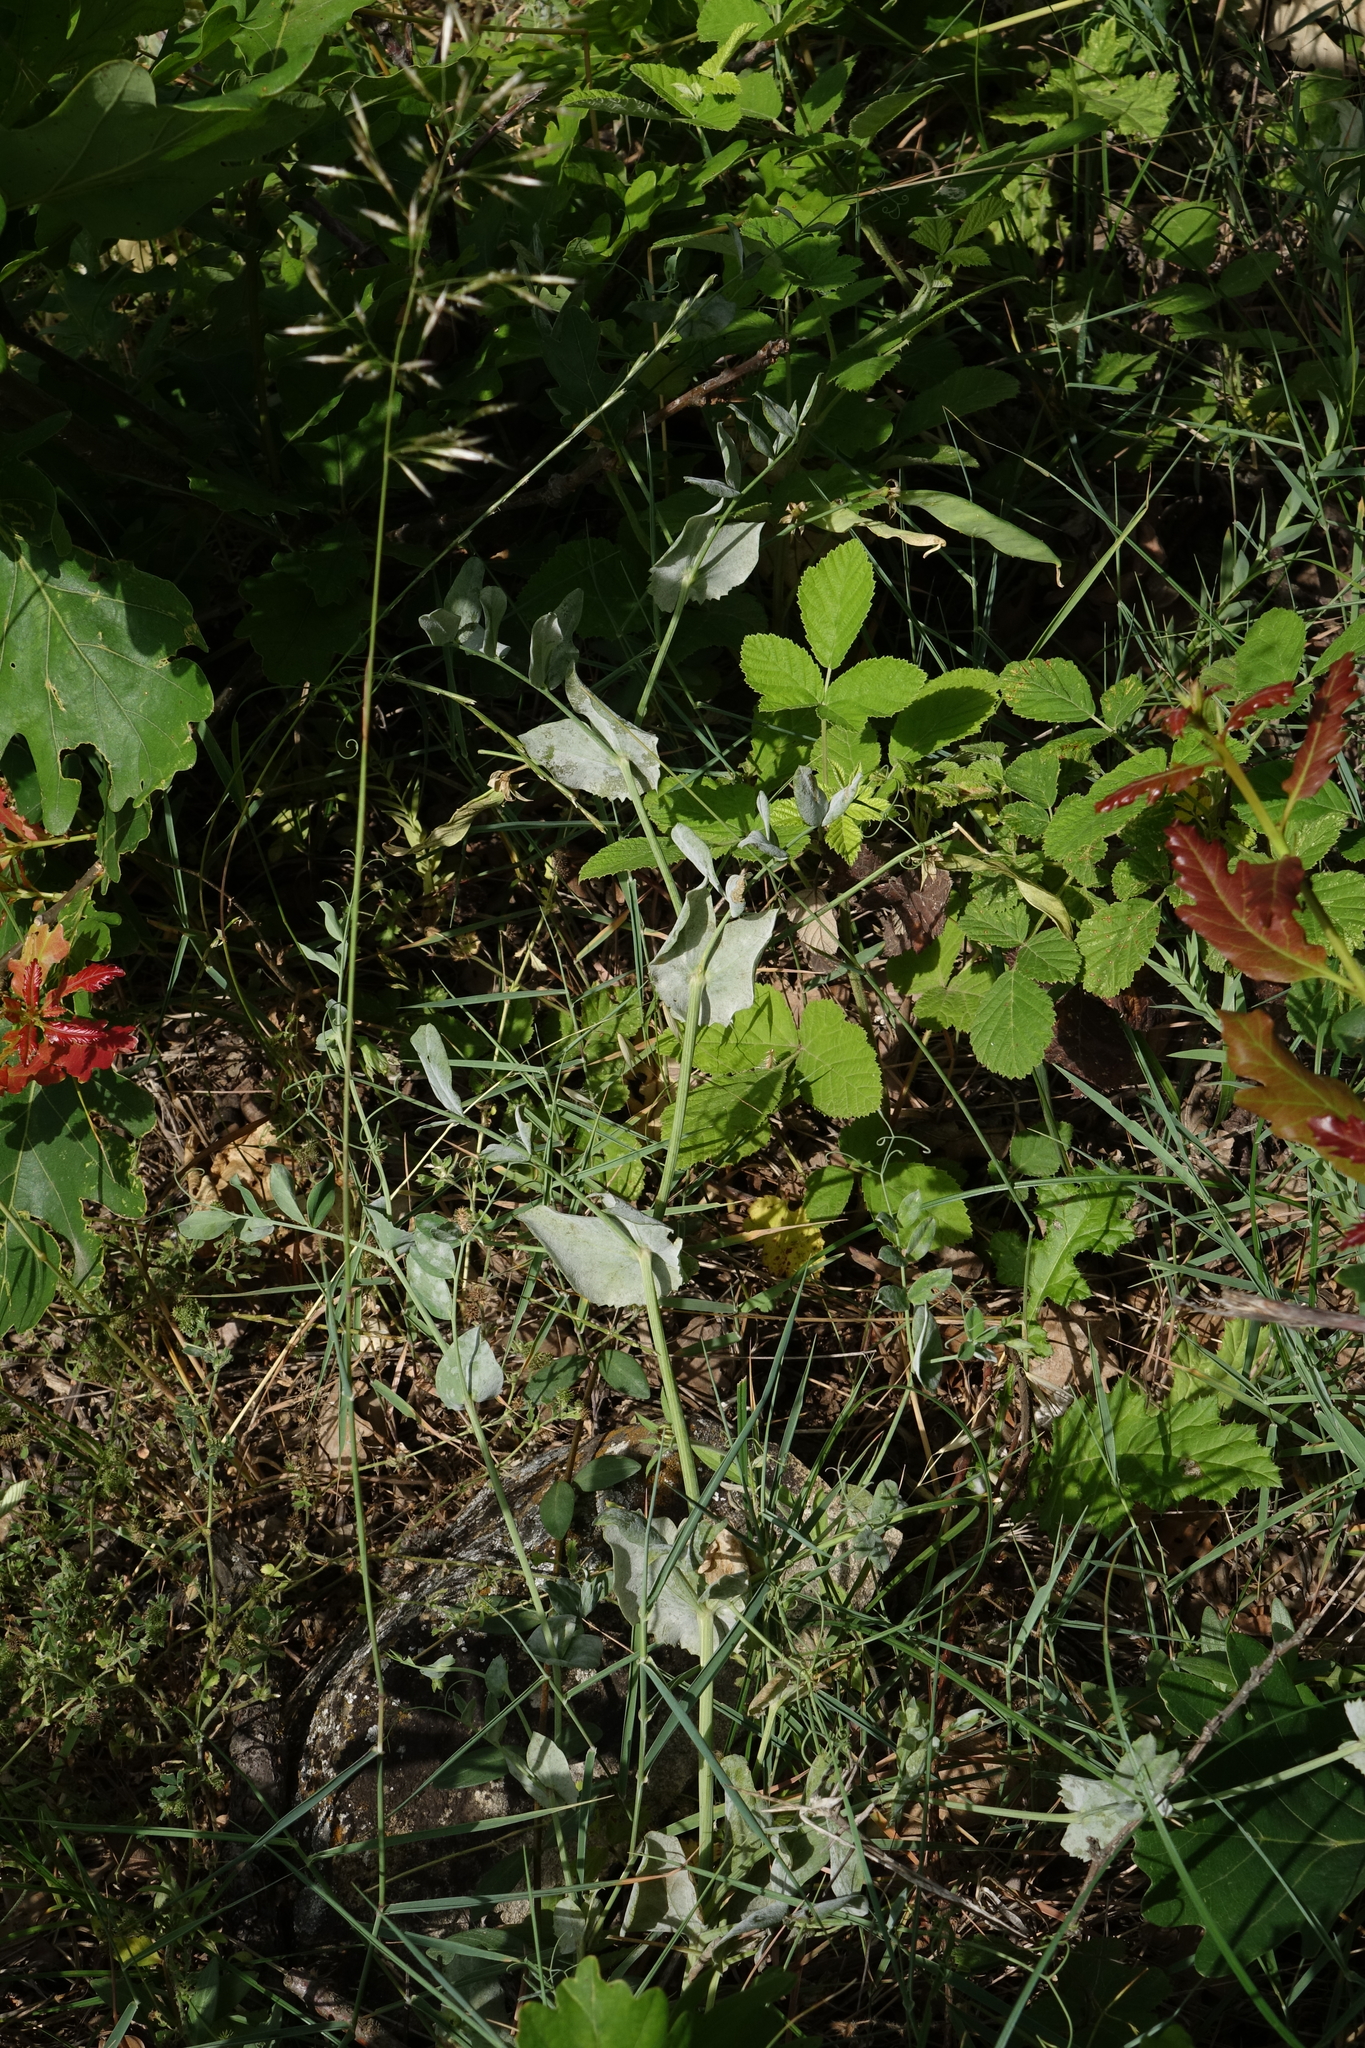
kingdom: Plantae
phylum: Tracheophyta
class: Magnoliopsida
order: Fabales
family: Fabaceae
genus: Lathyrus
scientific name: Lathyrus oleraceus
